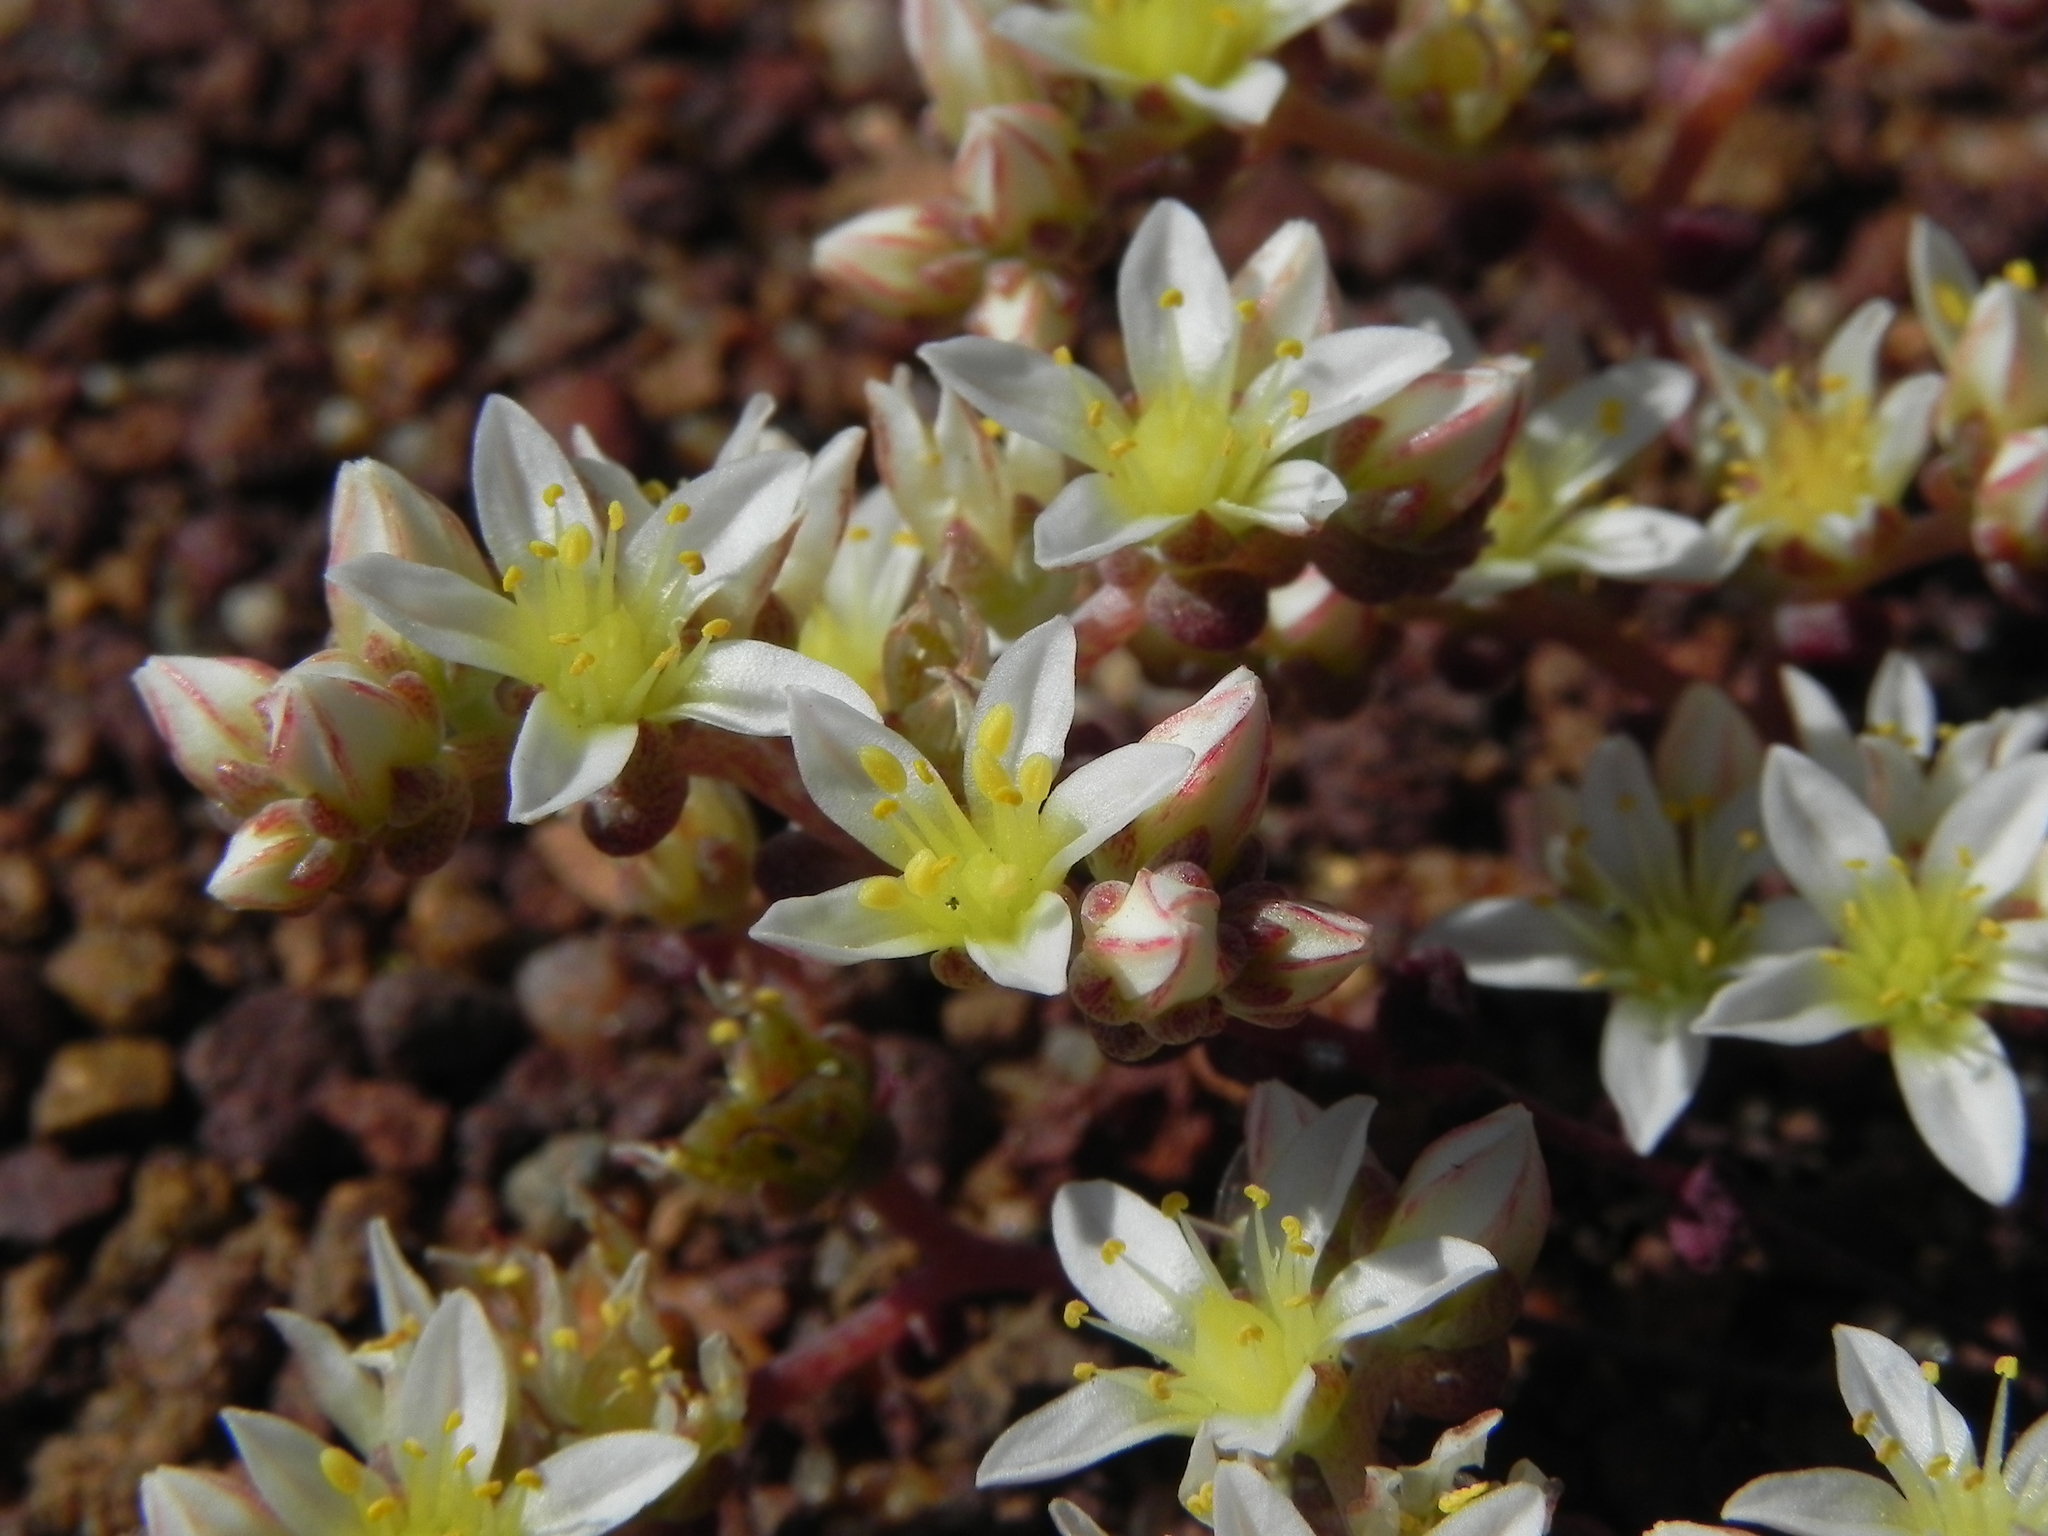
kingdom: Plantae
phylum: Tracheophyta
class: Magnoliopsida
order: Saxifragales
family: Crassulaceae
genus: Dudleya
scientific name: Dudleya blochmaniae
